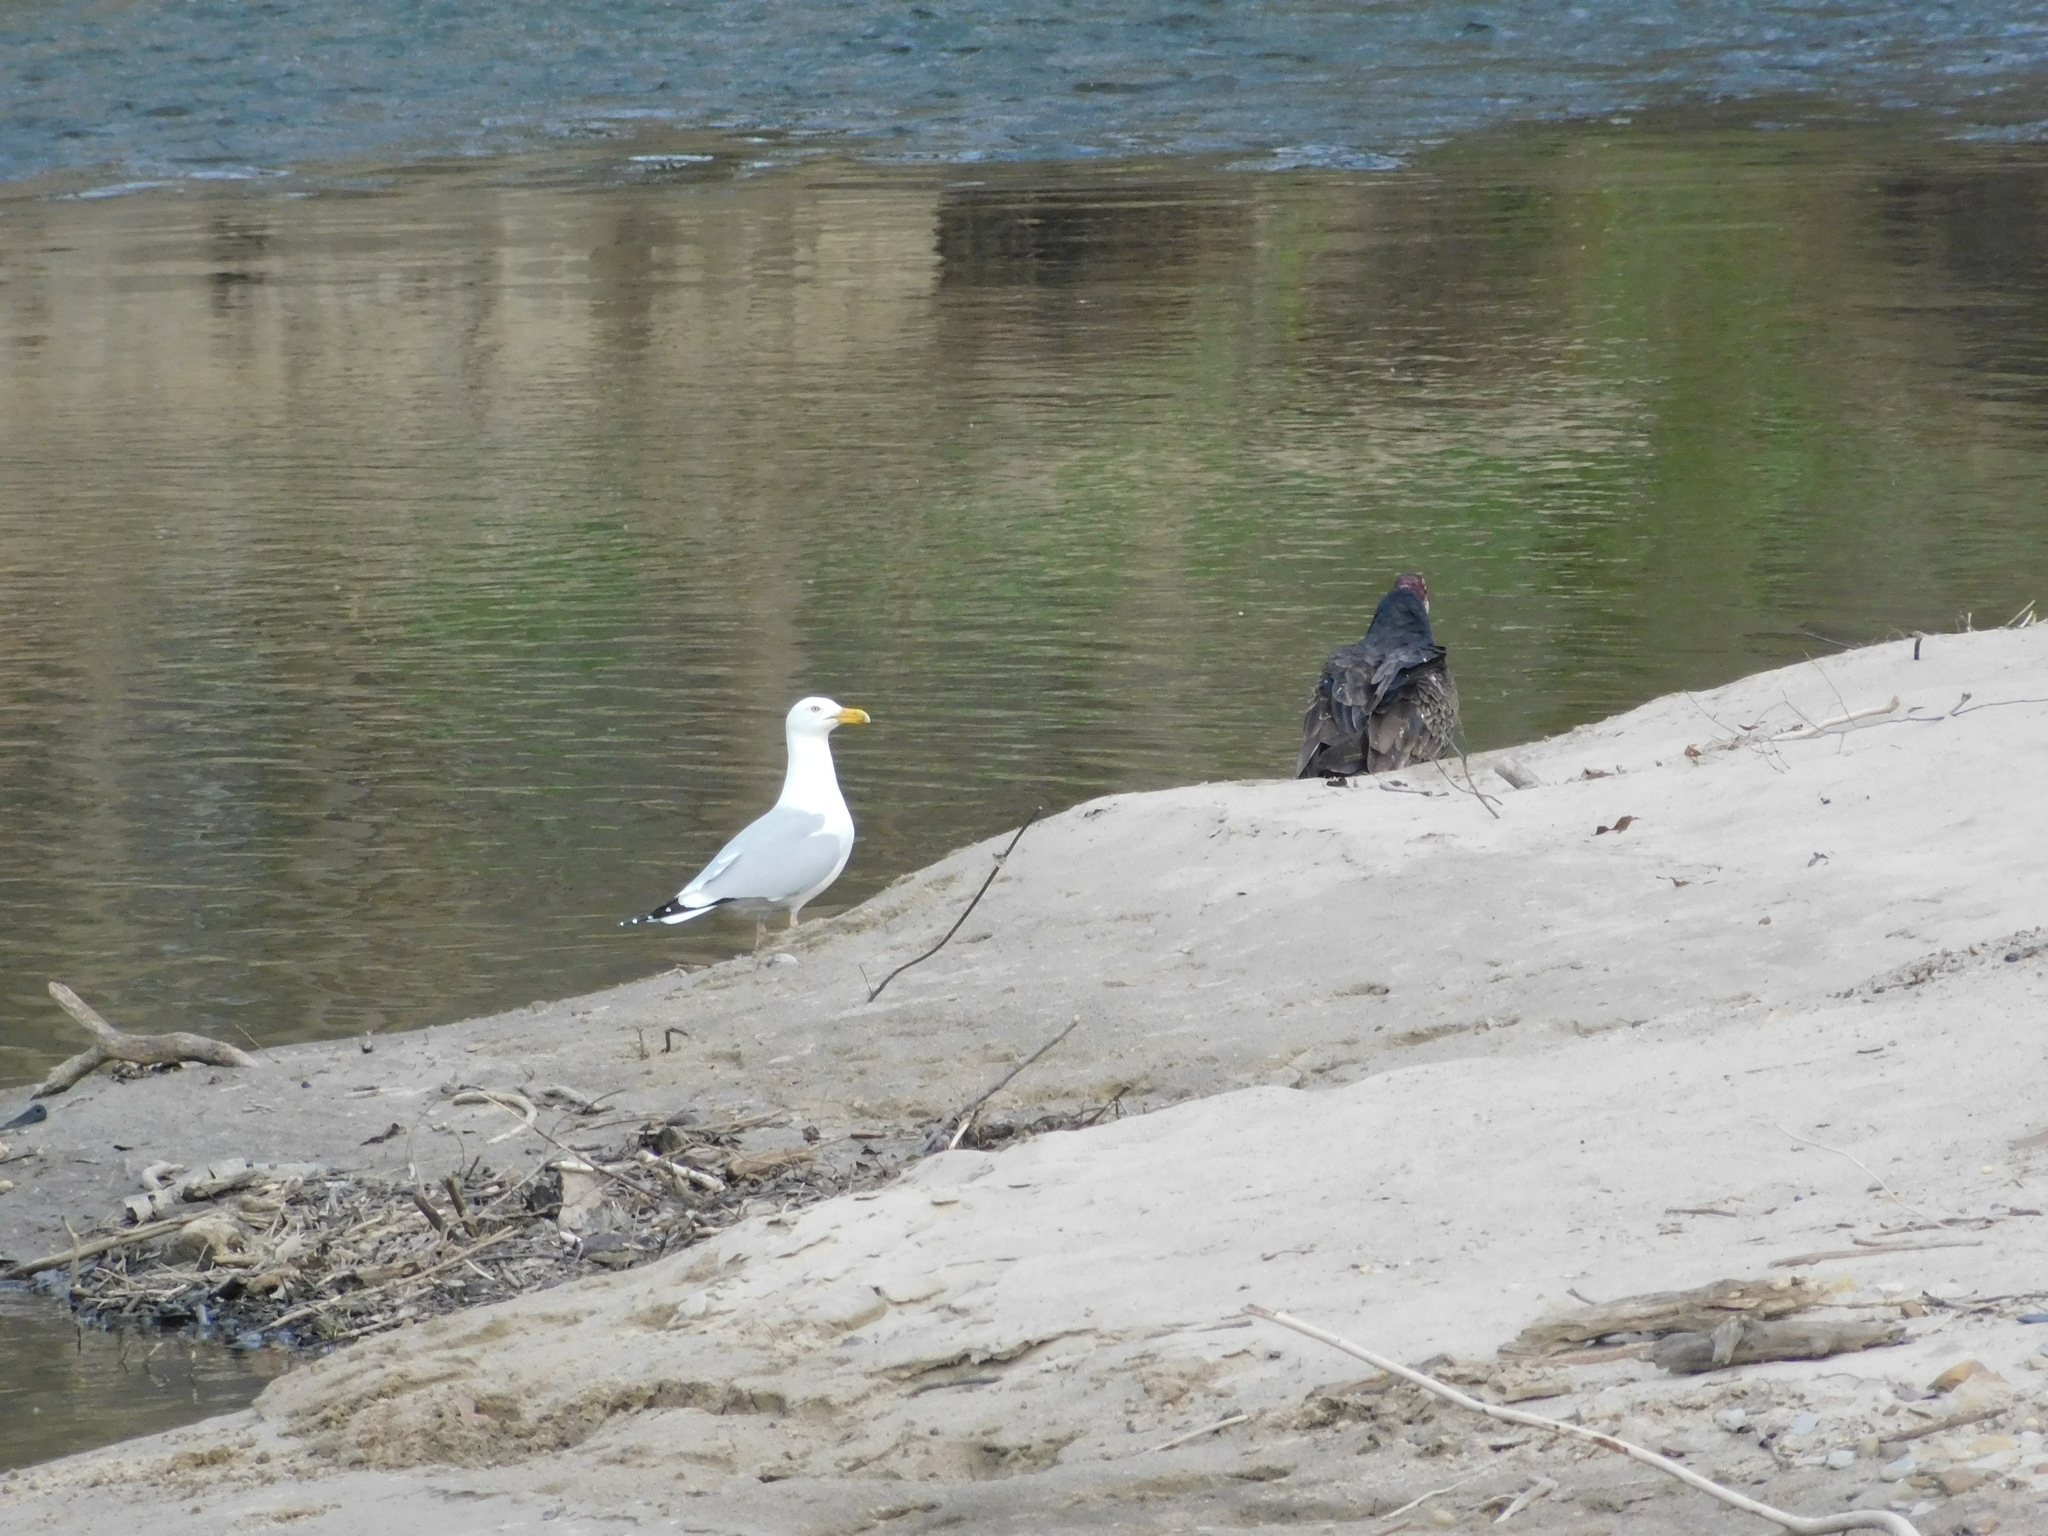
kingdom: Animalia
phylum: Chordata
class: Aves
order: Charadriiformes
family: Laridae
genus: Larus
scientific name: Larus argentatus
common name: Herring gull
